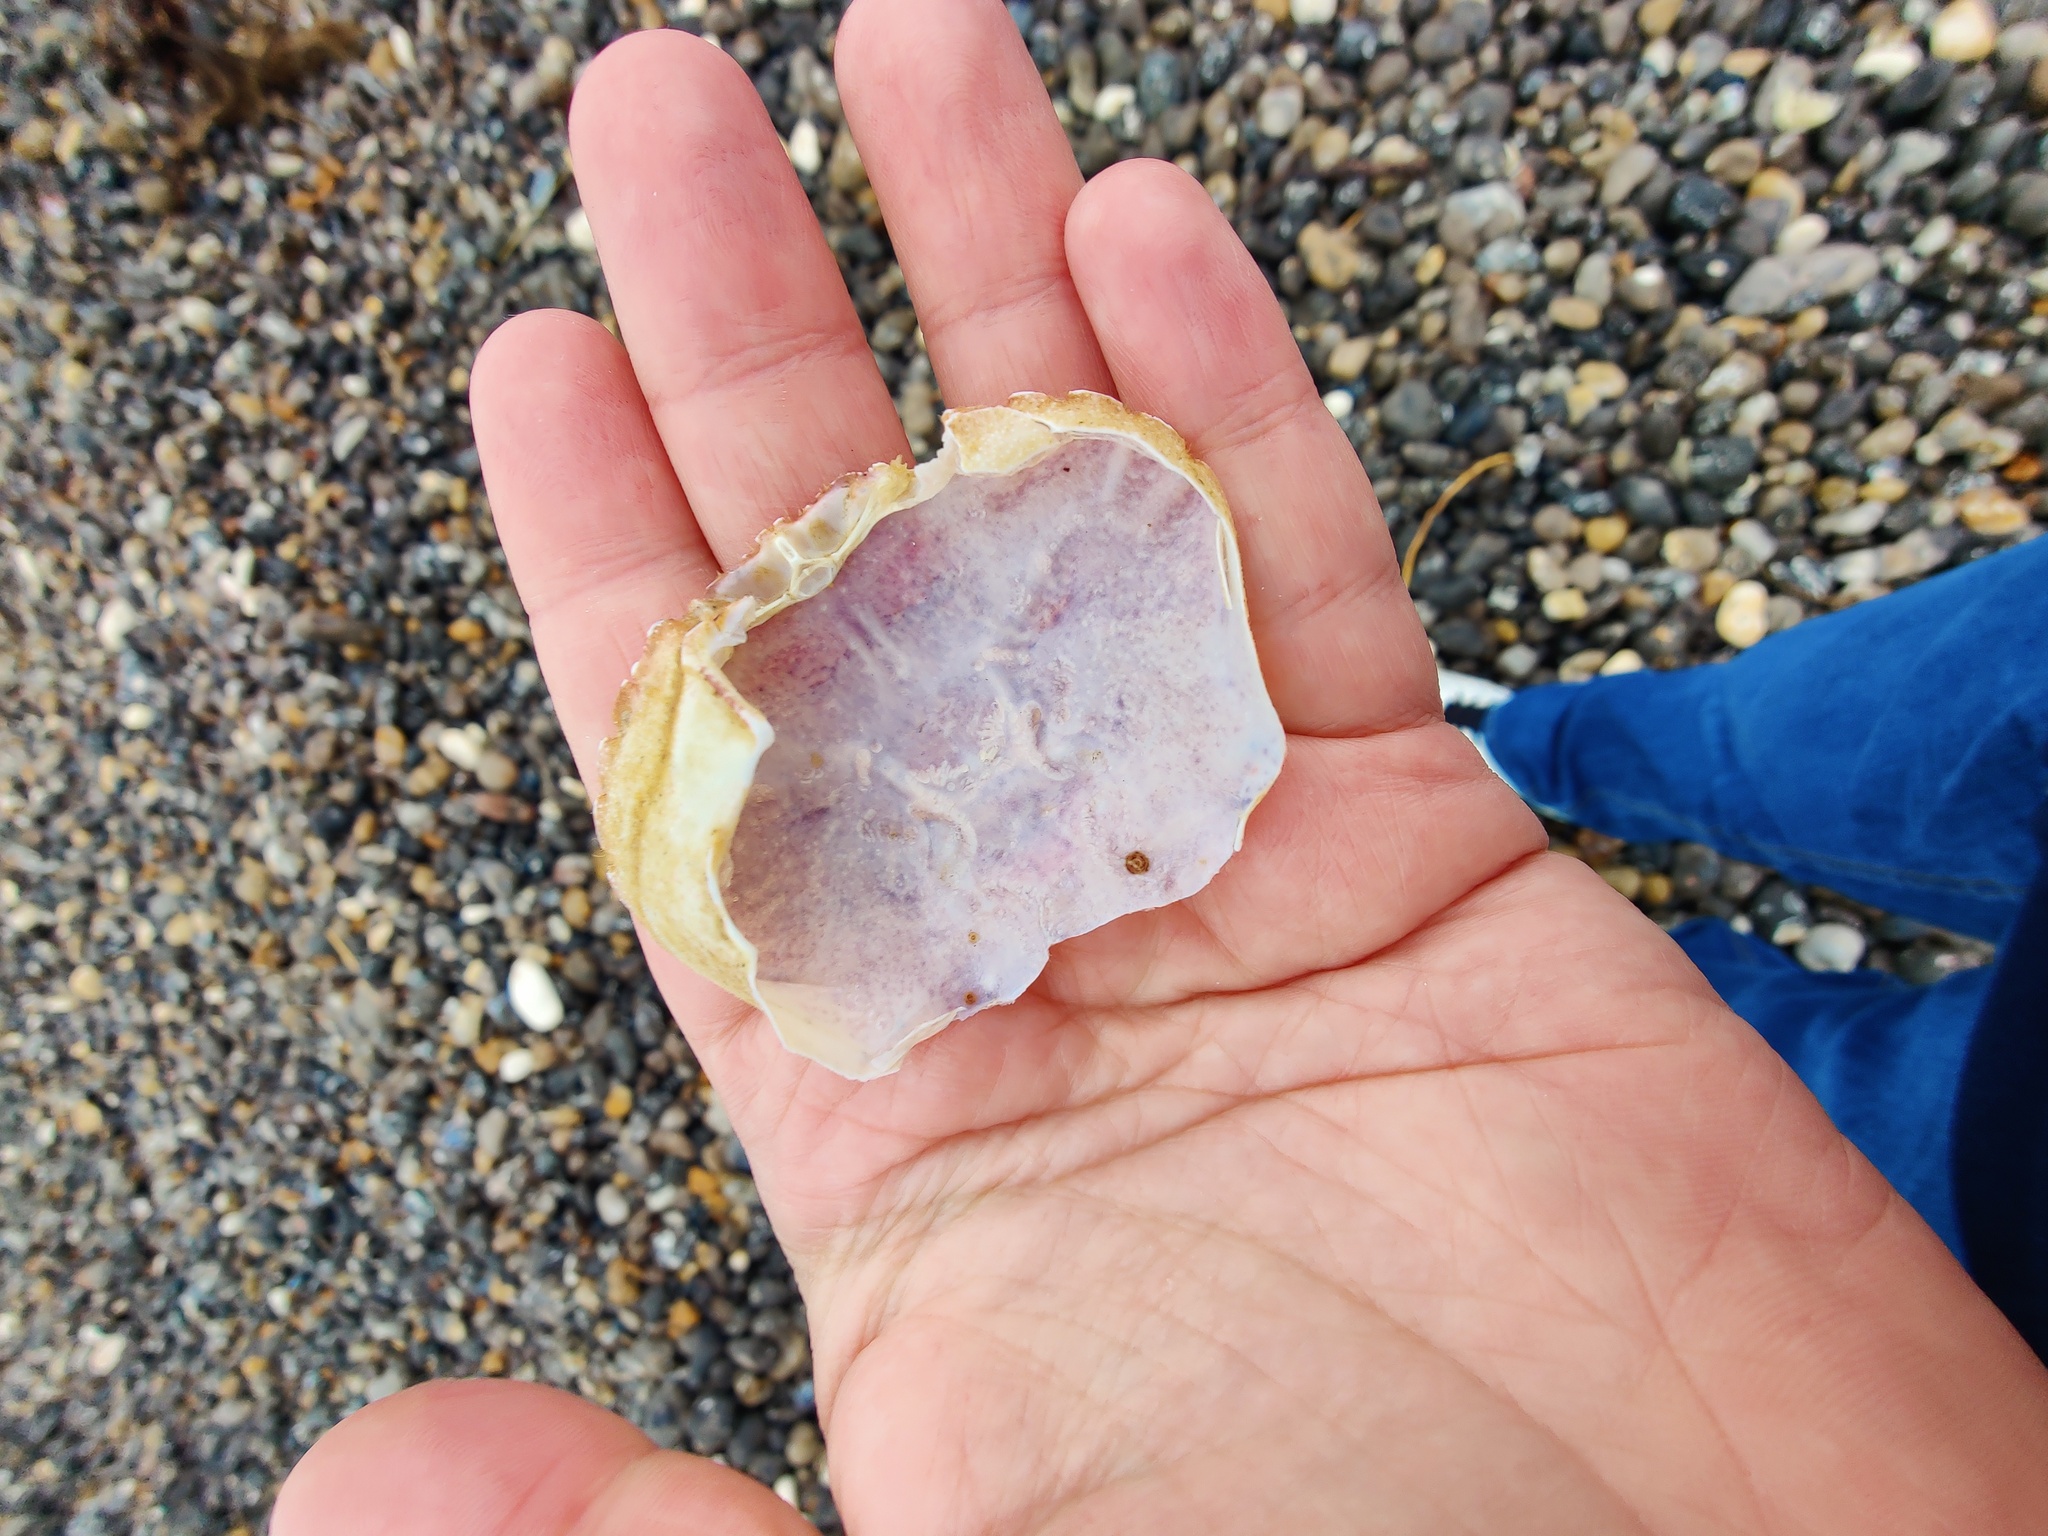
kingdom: Animalia
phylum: Arthropoda
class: Malacostraca
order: Decapoda
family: Polybiidae
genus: Necora
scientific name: Necora puber
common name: Velvet swimming crab
